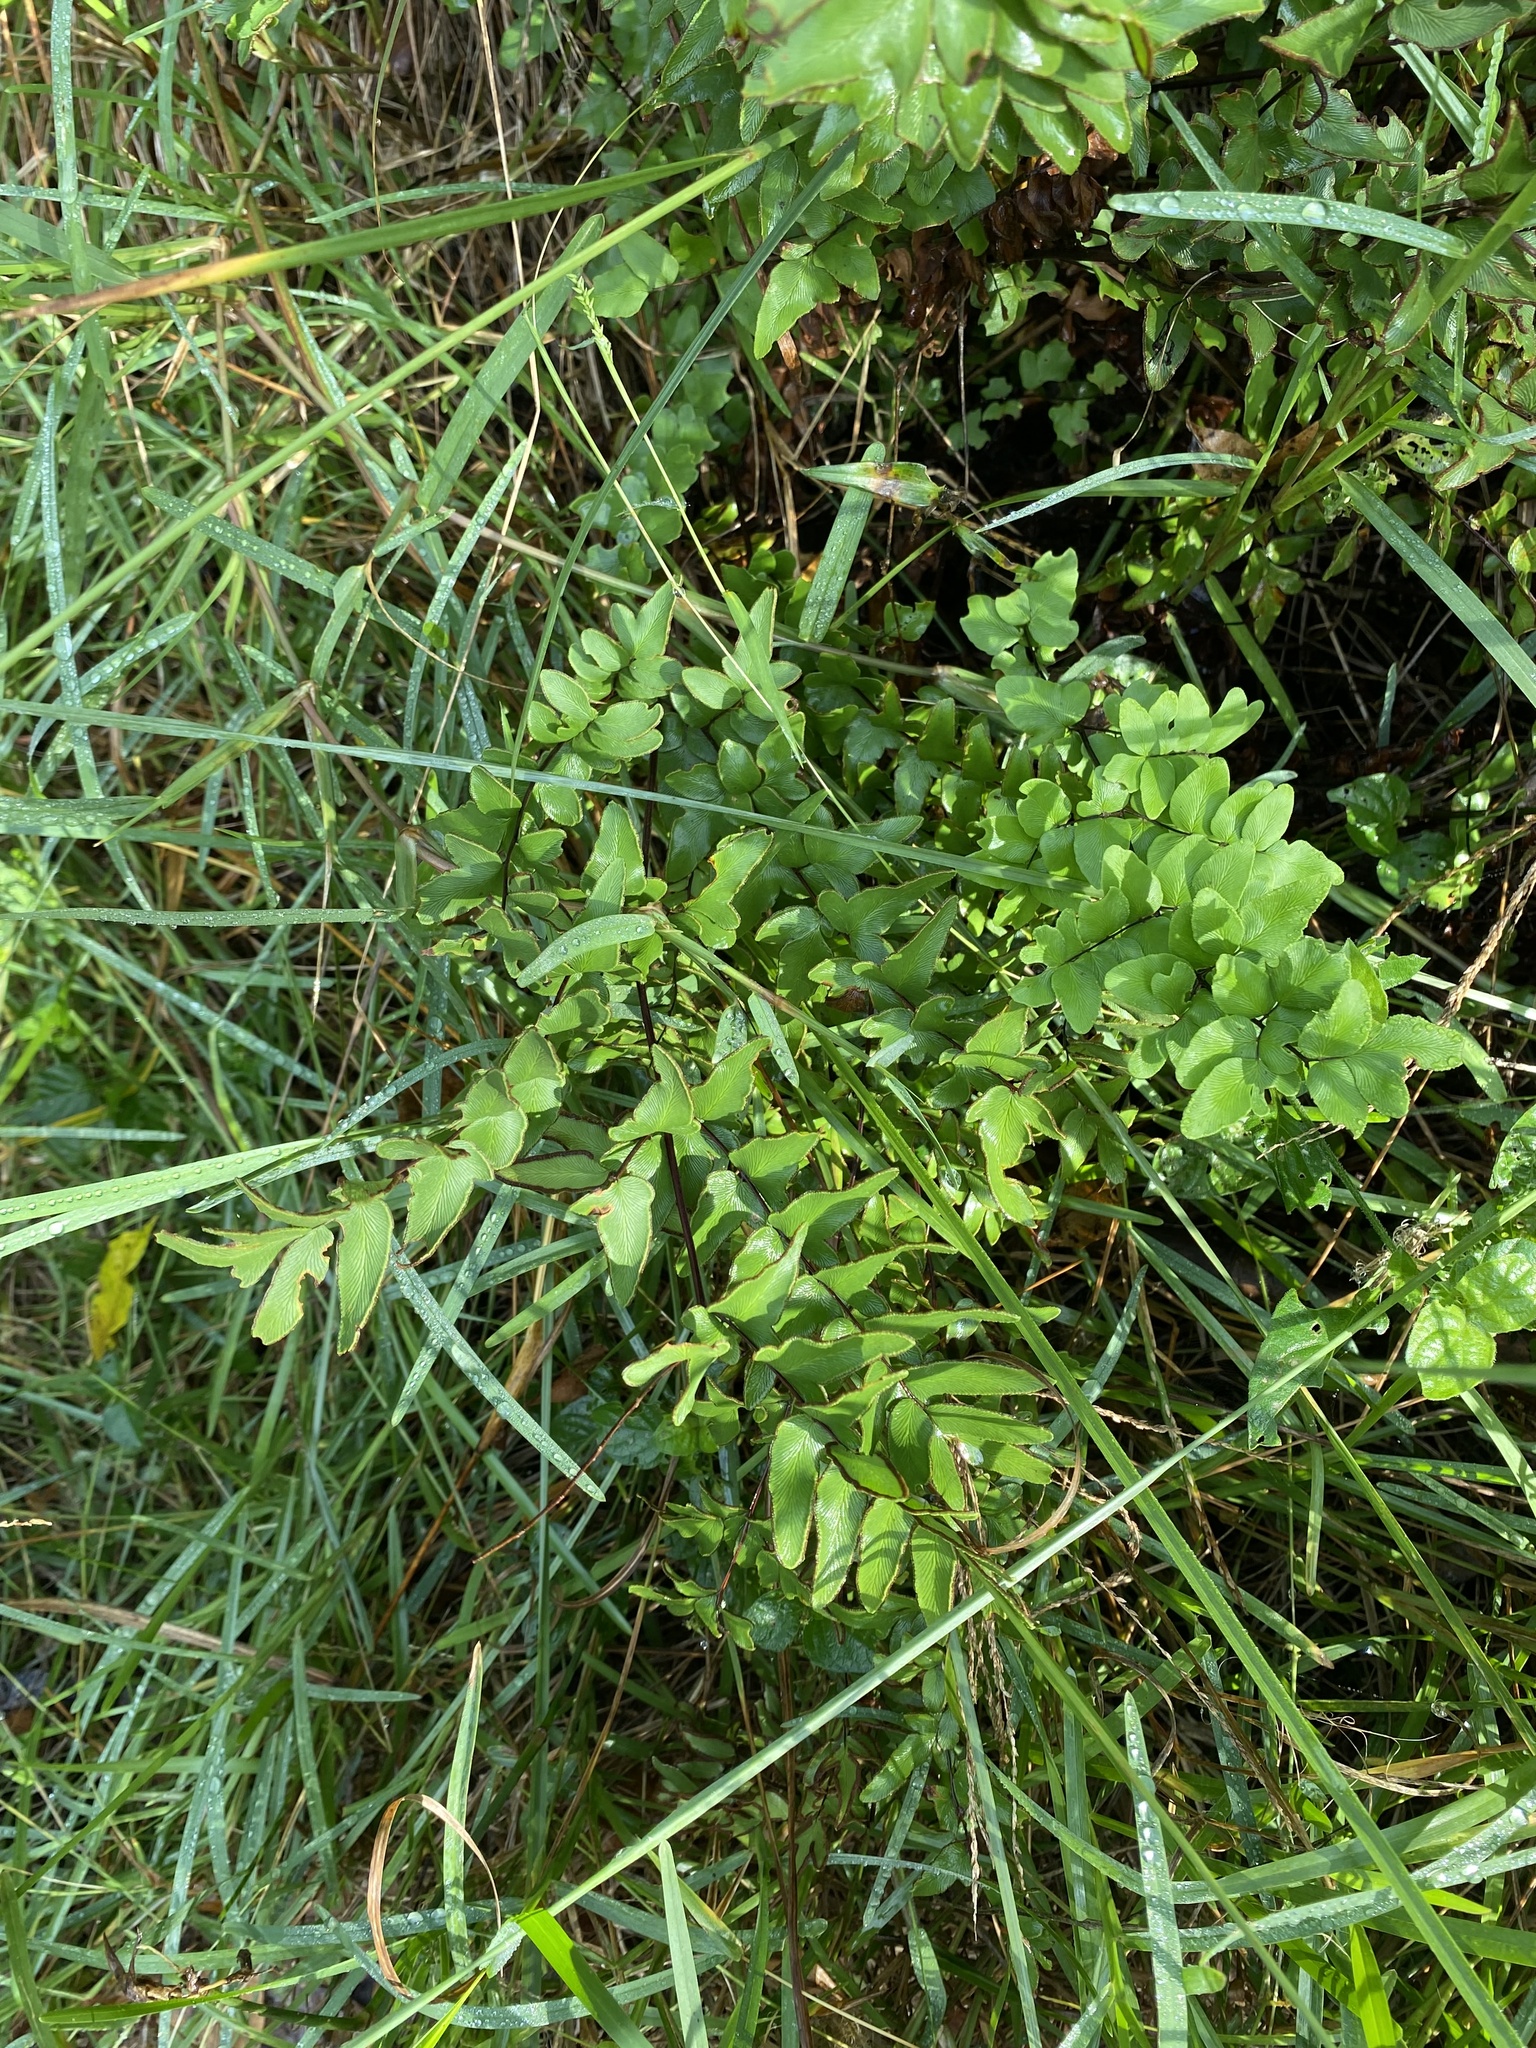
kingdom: Plantae
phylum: Tracheophyta
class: Polypodiopsida
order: Polypodiales
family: Pteridaceae
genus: Cheilanthes
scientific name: Cheilanthes viridis
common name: Green cliffbrake
